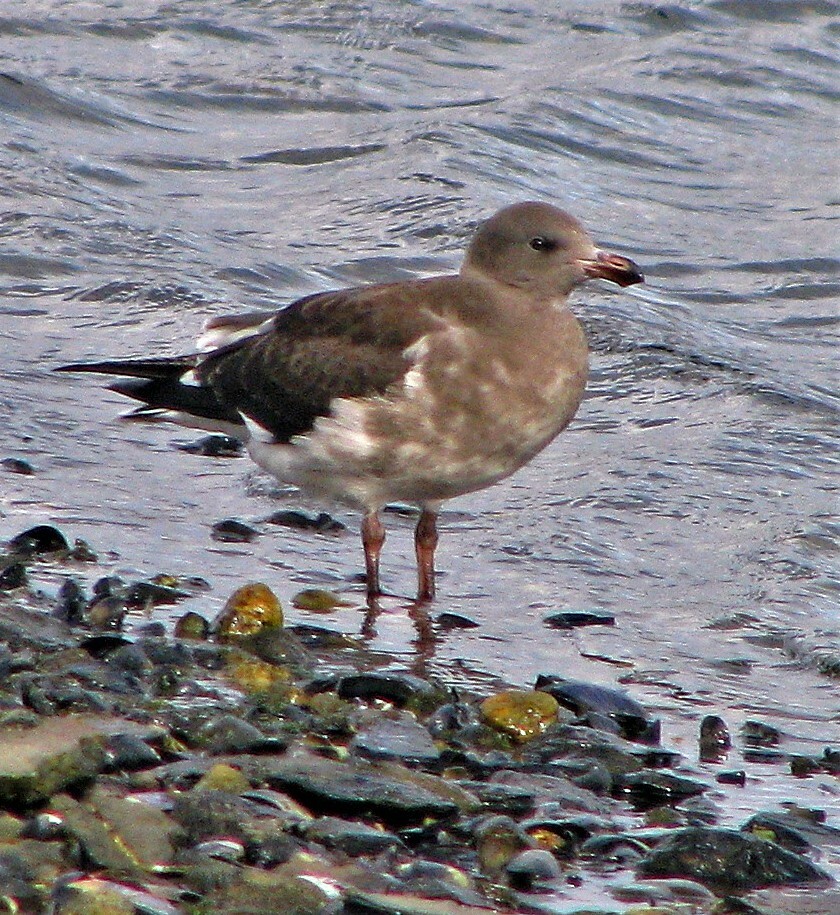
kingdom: Animalia
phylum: Chordata
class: Aves
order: Charadriiformes
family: Laridae
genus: Leucophaeus
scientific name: Leucophaeus scoresbii
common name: Dolphin gull
